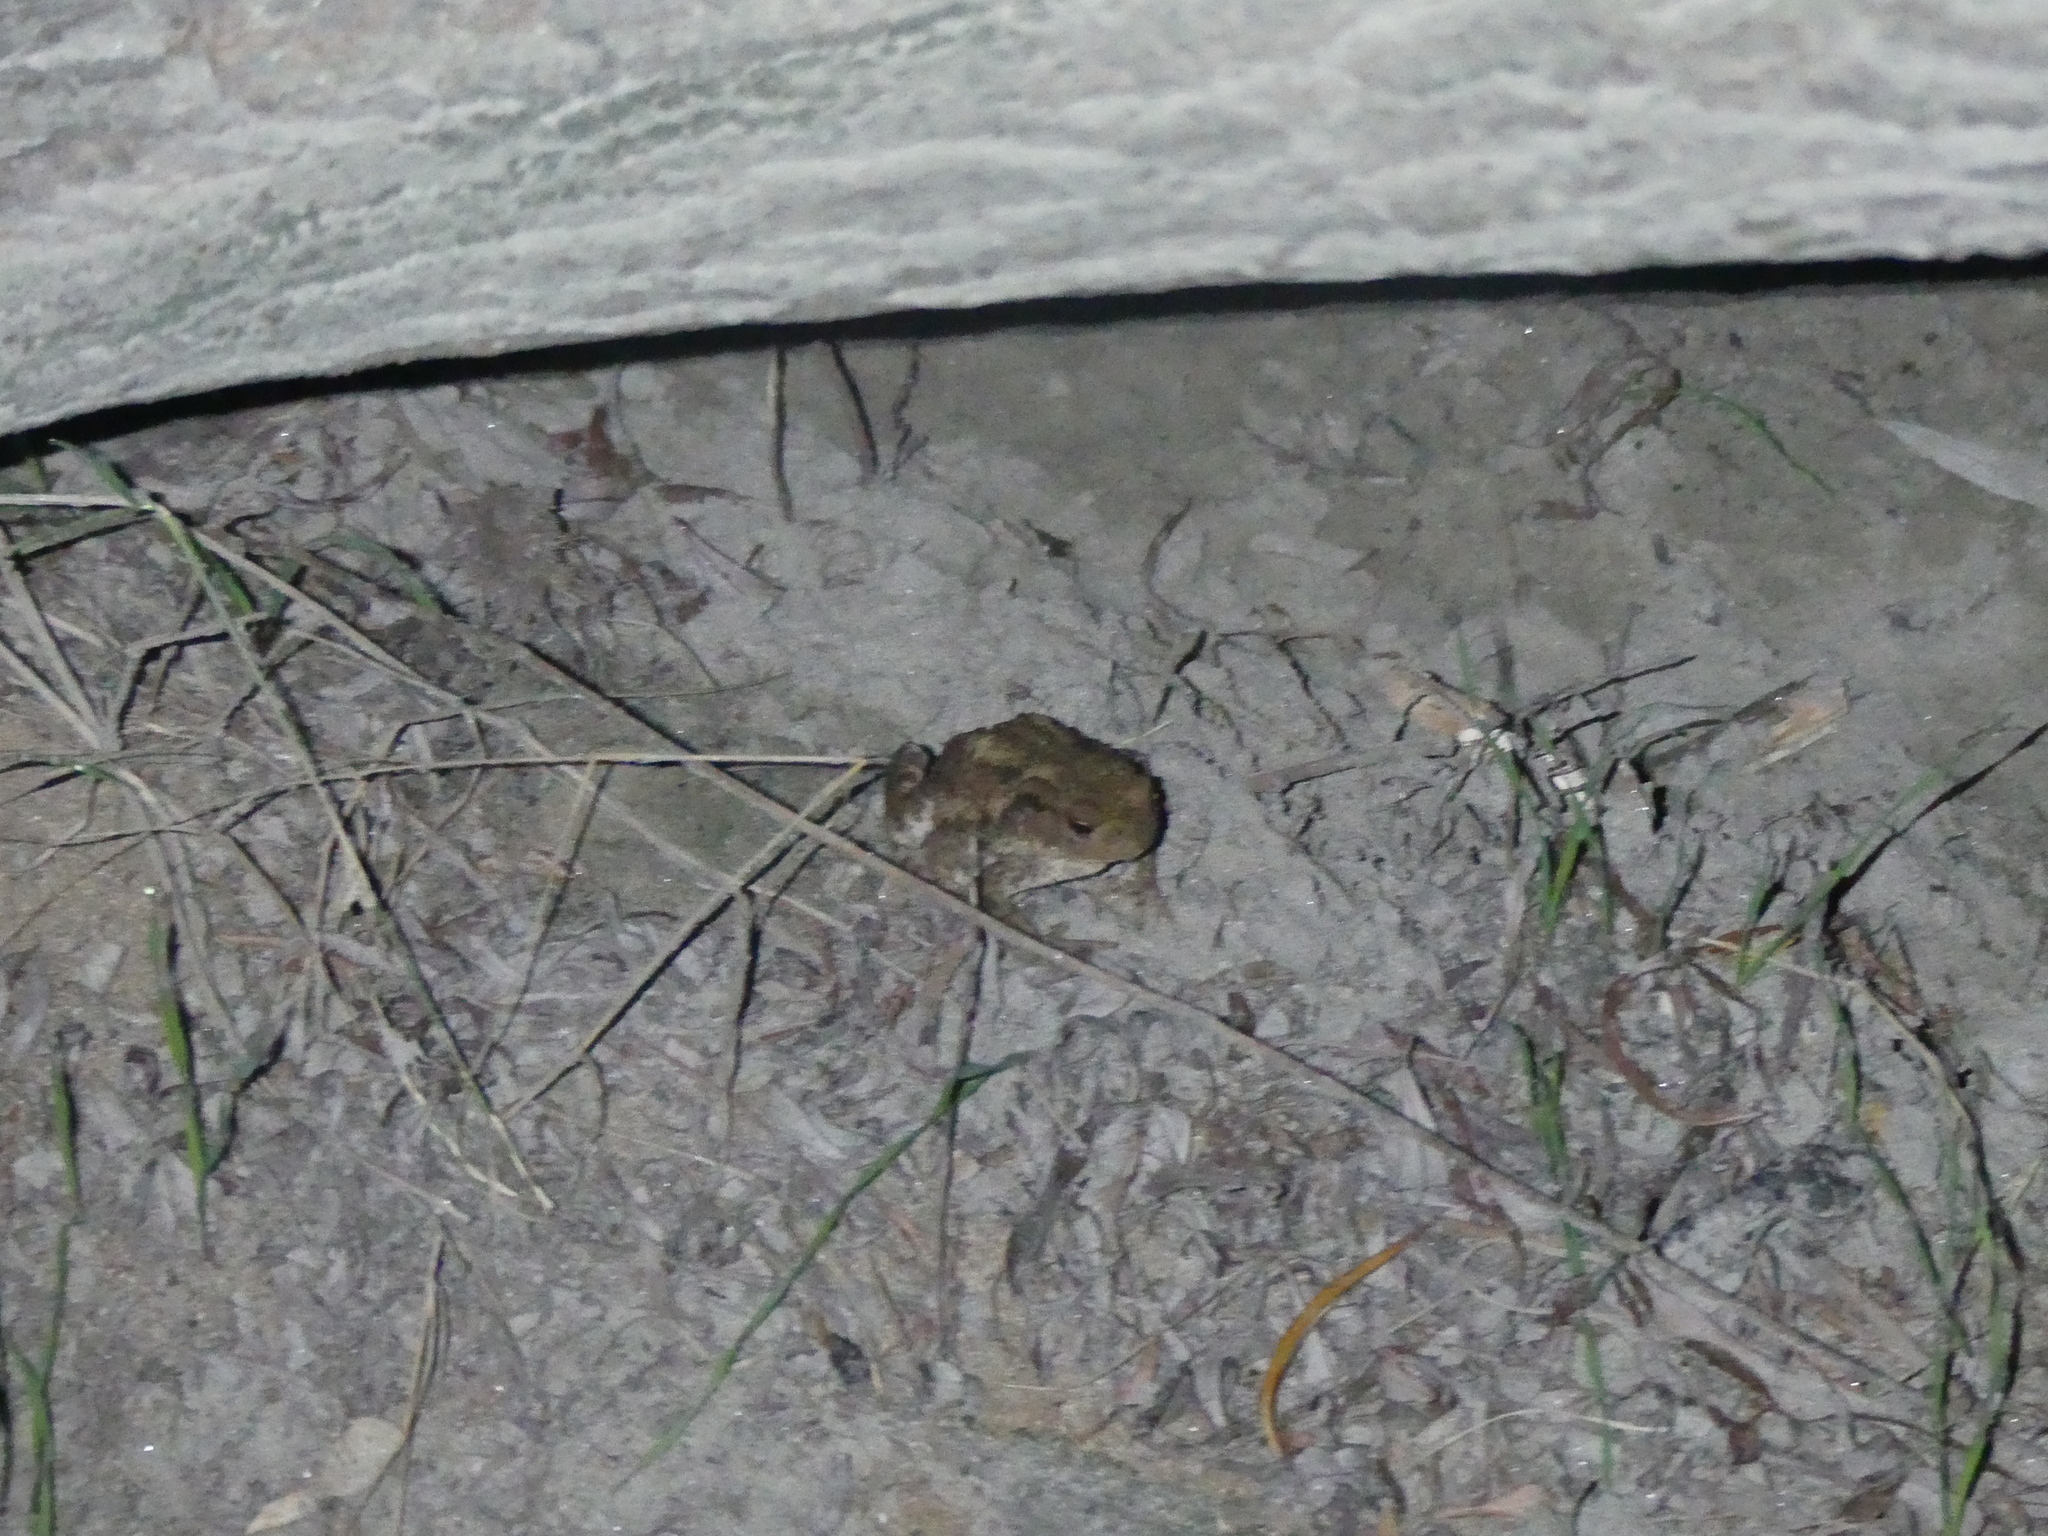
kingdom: Animalia
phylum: Chordata
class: Amphibia
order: Anura
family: Bufonidae
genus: Bufo
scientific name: Bufo bufo
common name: Common toad
